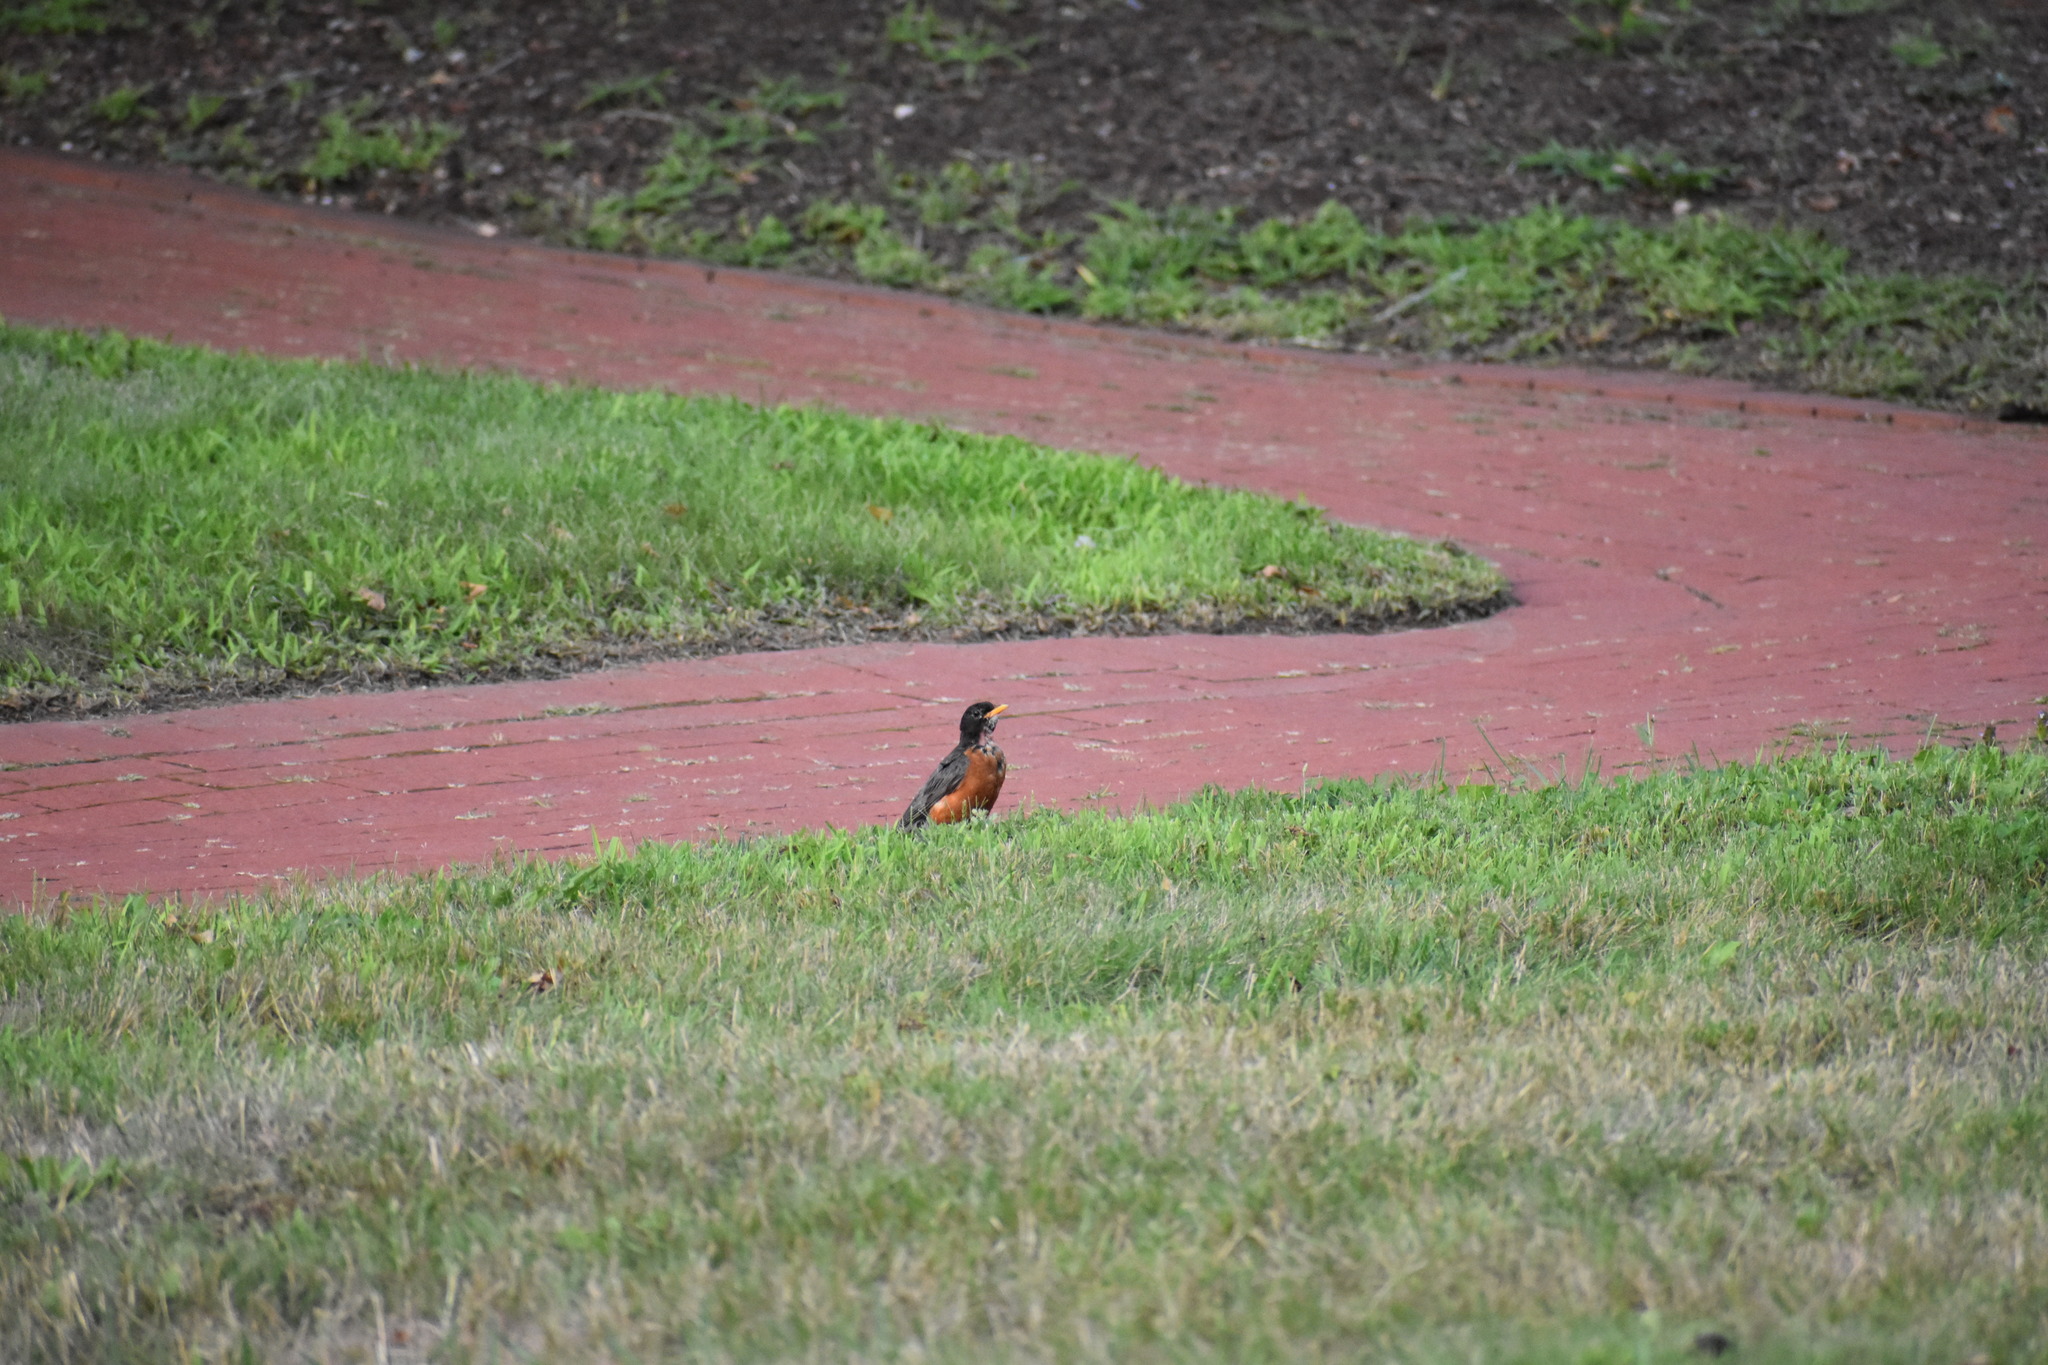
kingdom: Animalia
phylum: Chordata
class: Aves
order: Passeriformes
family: Turdidae
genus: Turdus
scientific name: Turdus migratorius
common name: American robin
